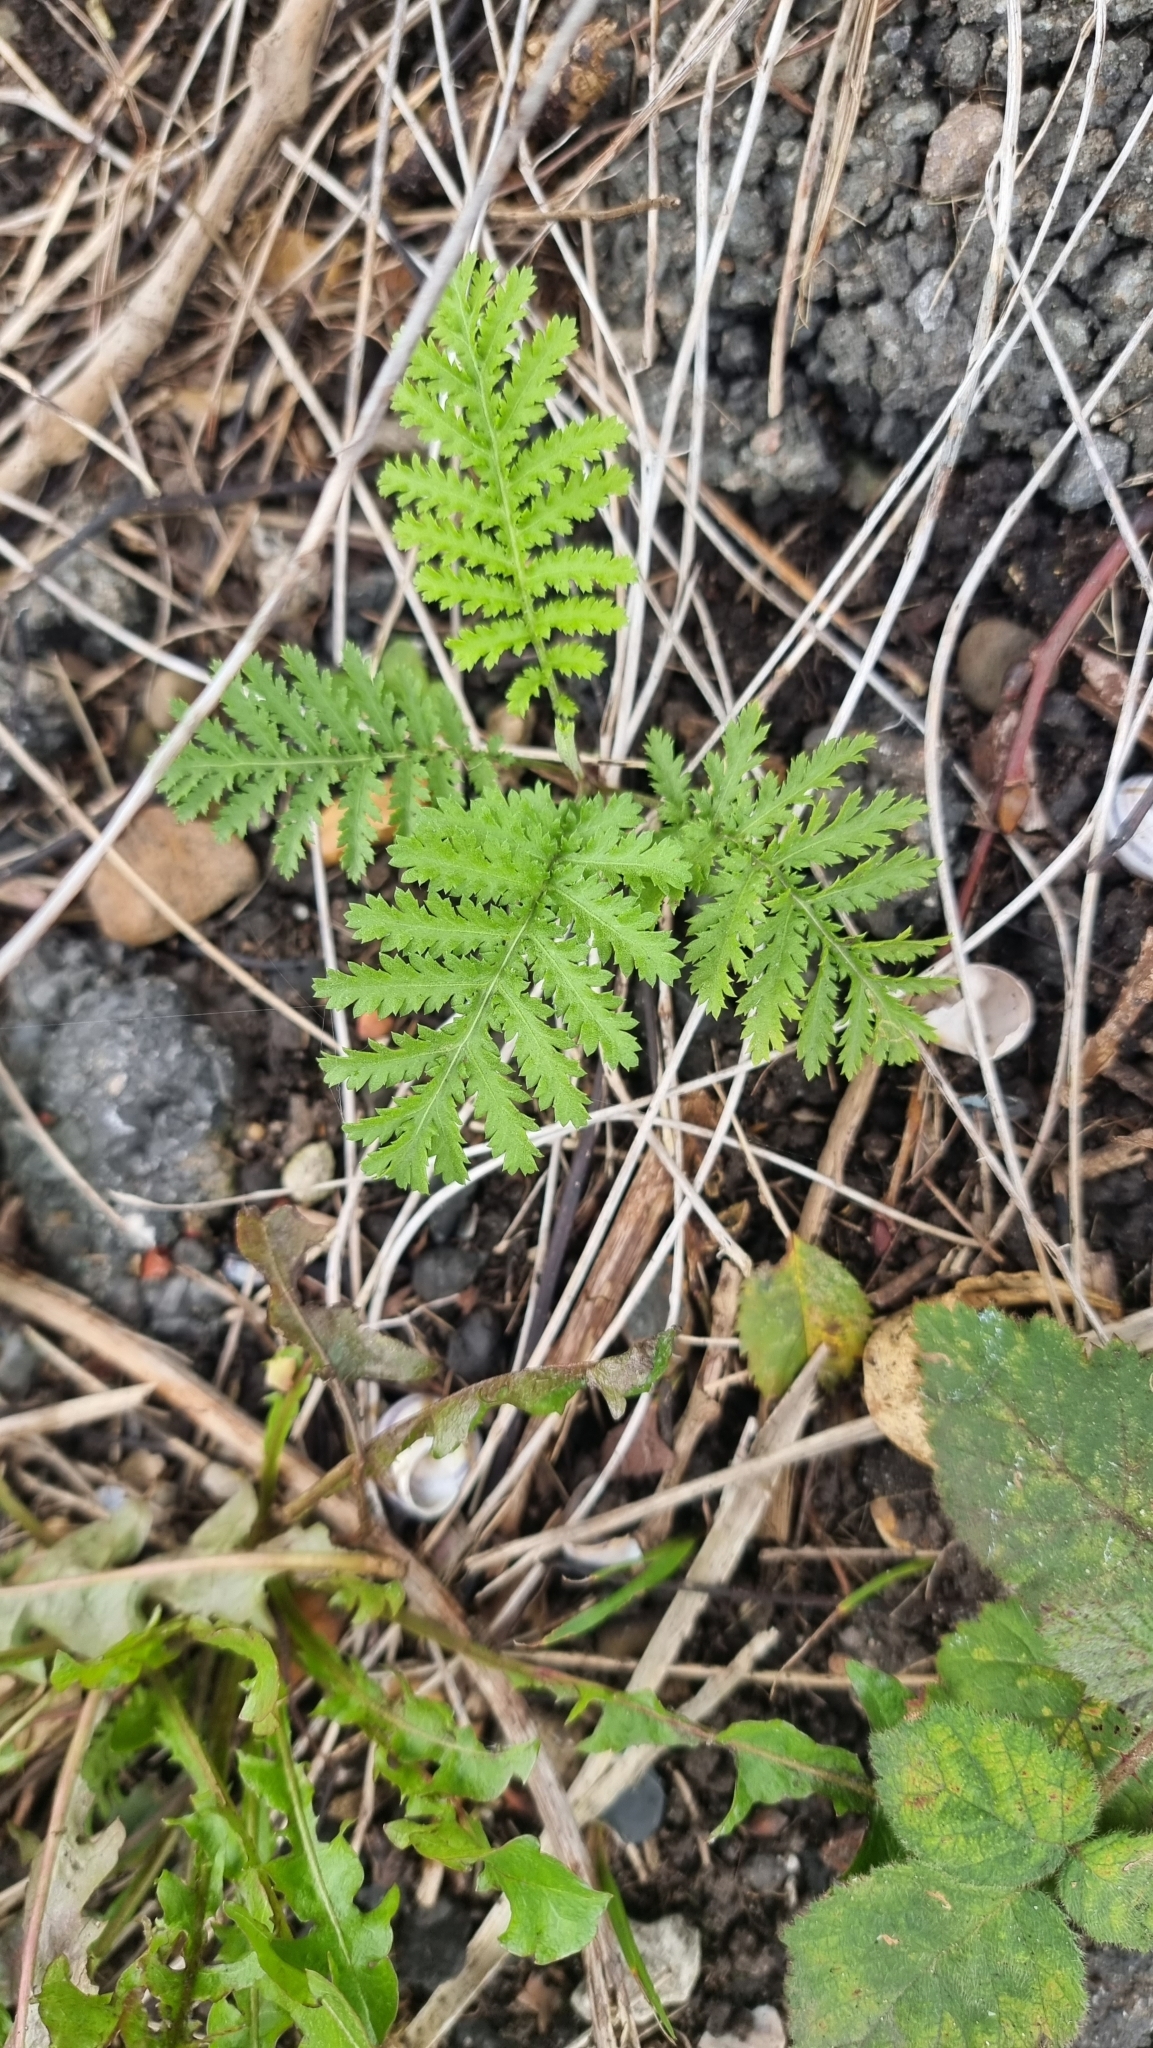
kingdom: Plantae
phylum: Tracheophyta
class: Magnoliopsida
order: Asterales
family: Asteraceae
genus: Tanacetum
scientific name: Tanacetum vulgare
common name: Common tansy
